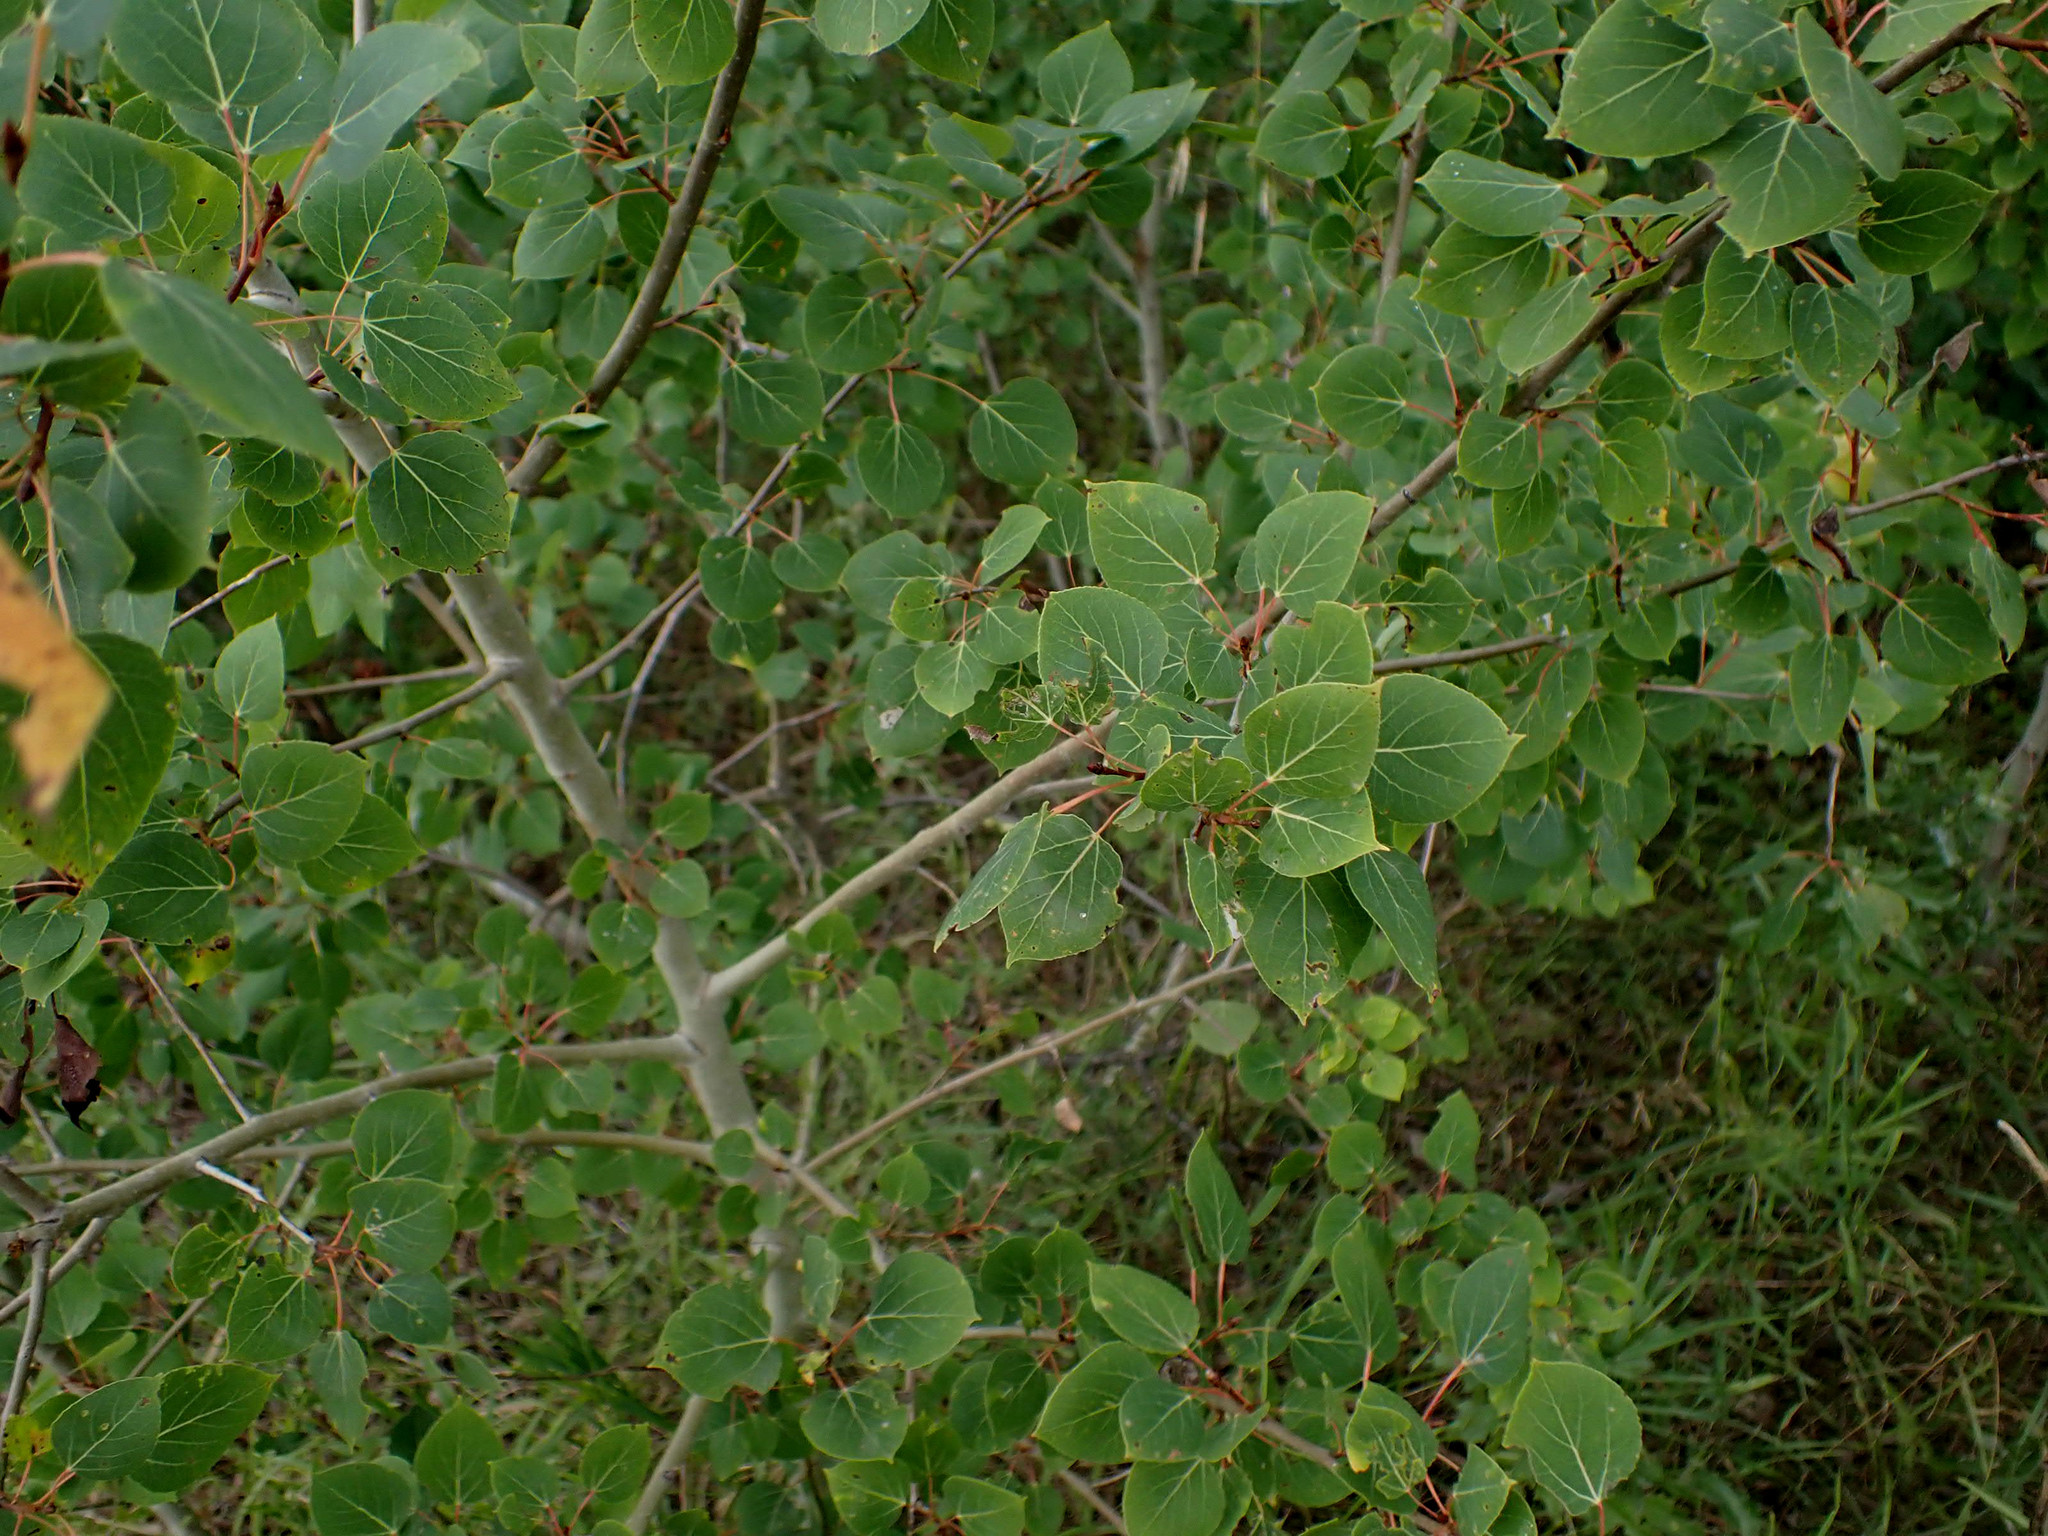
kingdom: Plantae
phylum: Tracheophyta
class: Magnoliopsida
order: Malpighiales
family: Salicaceae
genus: Populus
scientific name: Populus tremuloides
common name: Quaking aspen
